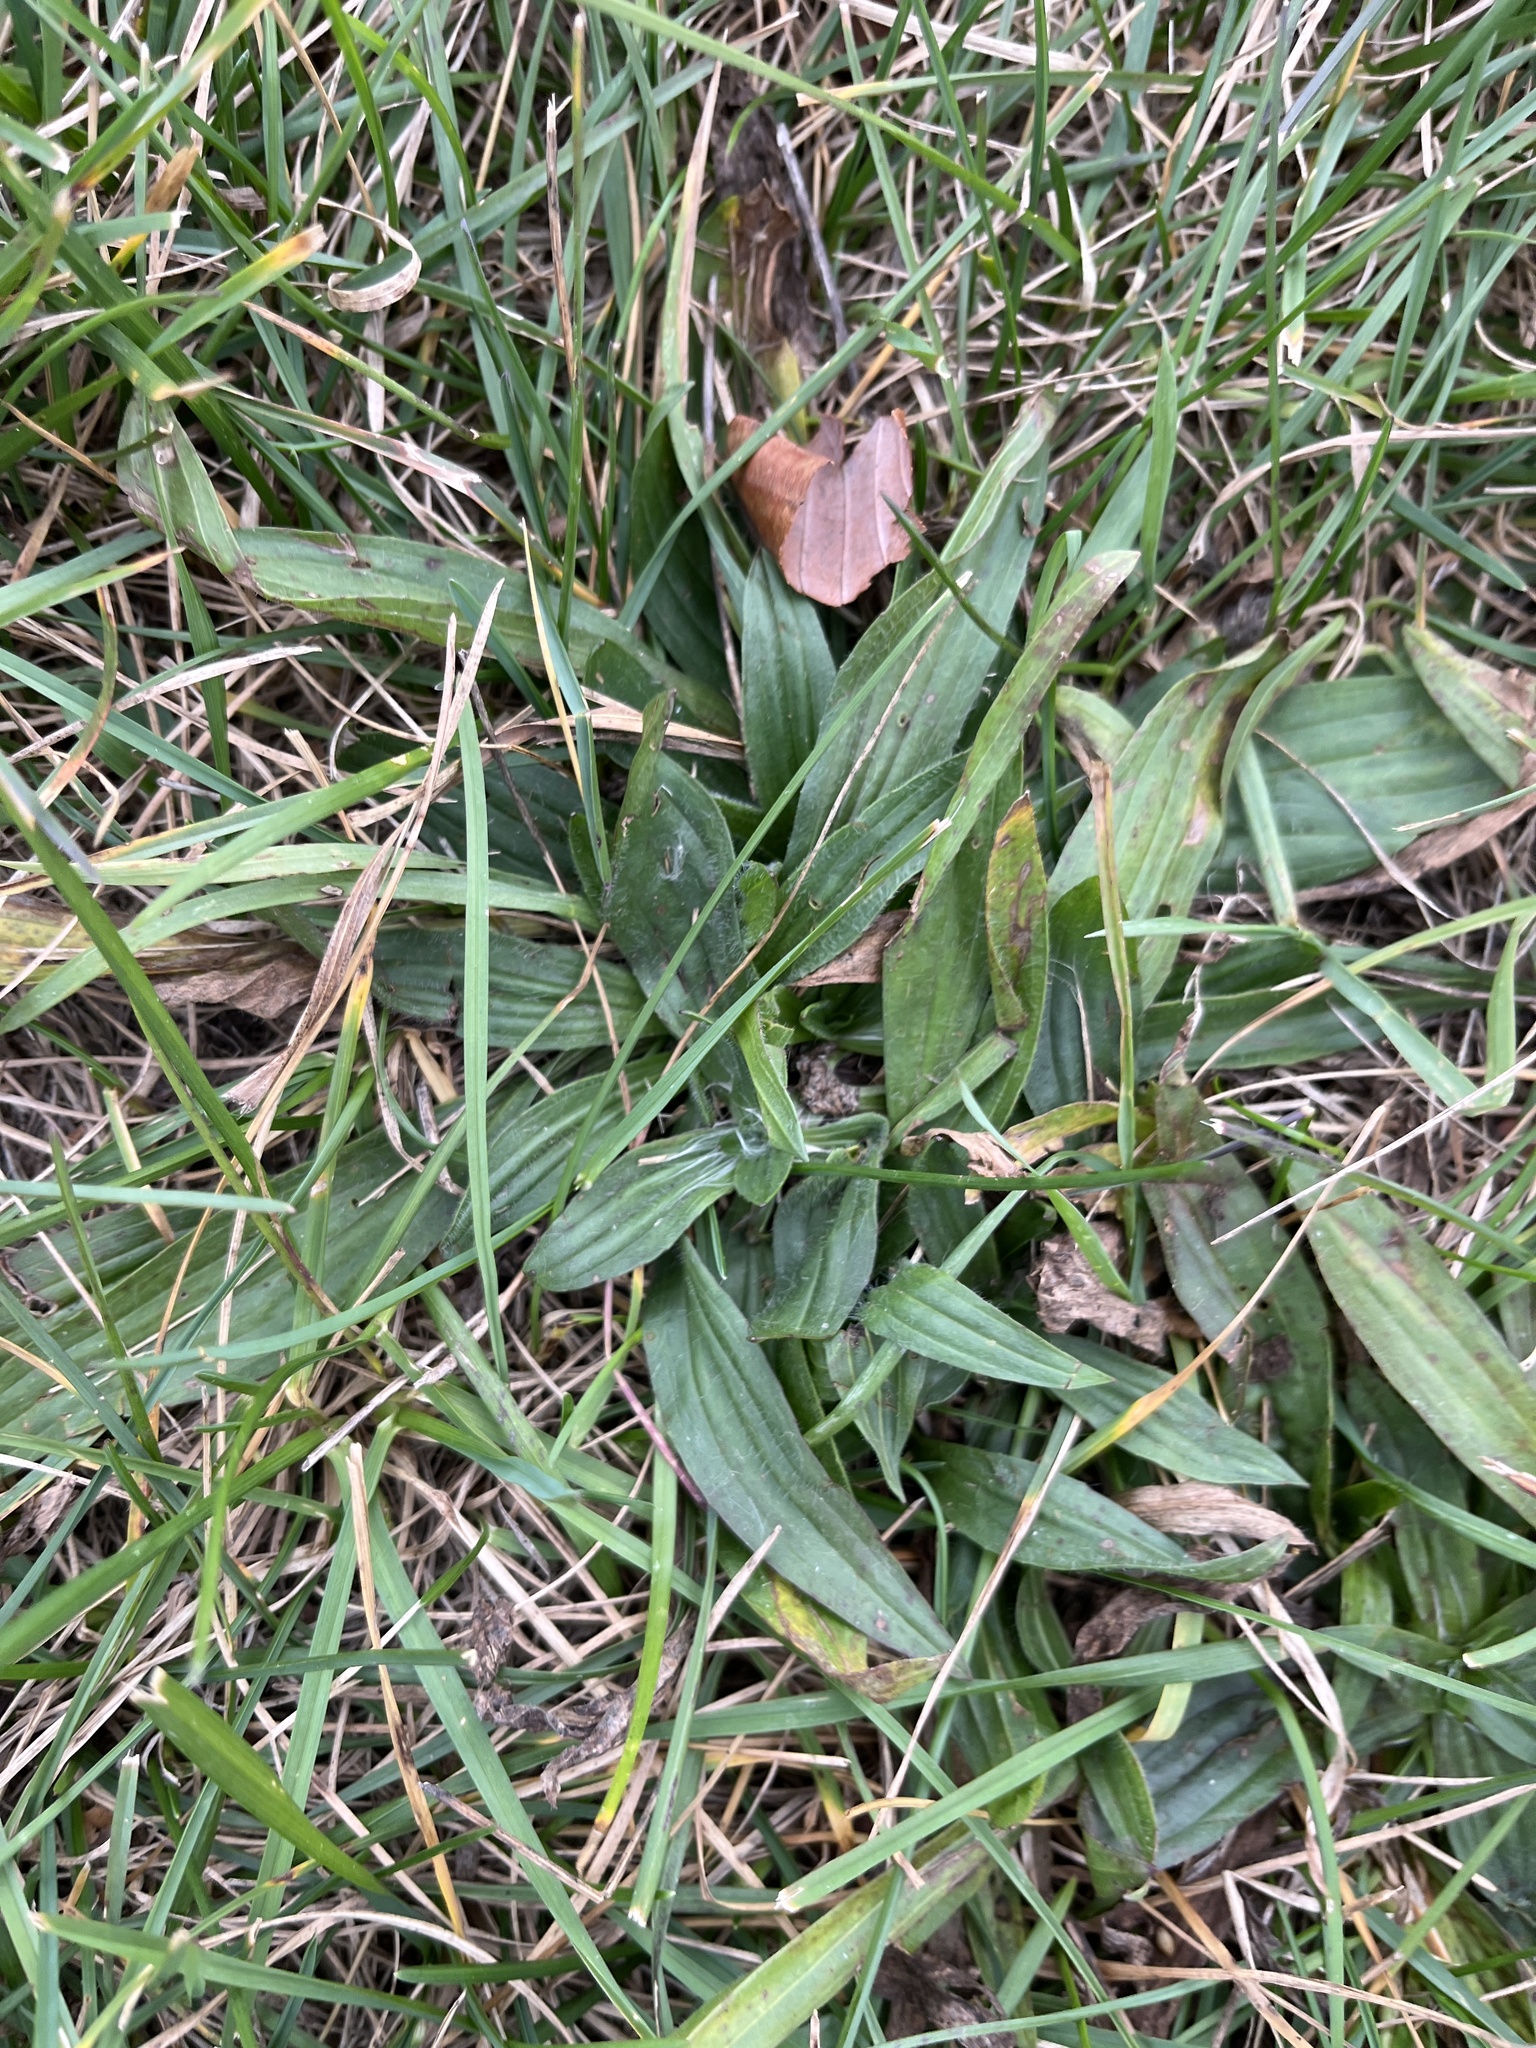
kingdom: Plantae
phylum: Tracheophyta
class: Magnoliopsida
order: Lamiales
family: Plantaginaceae
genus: Plantago
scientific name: Plantago lanceolata
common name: Ribwort plantain
